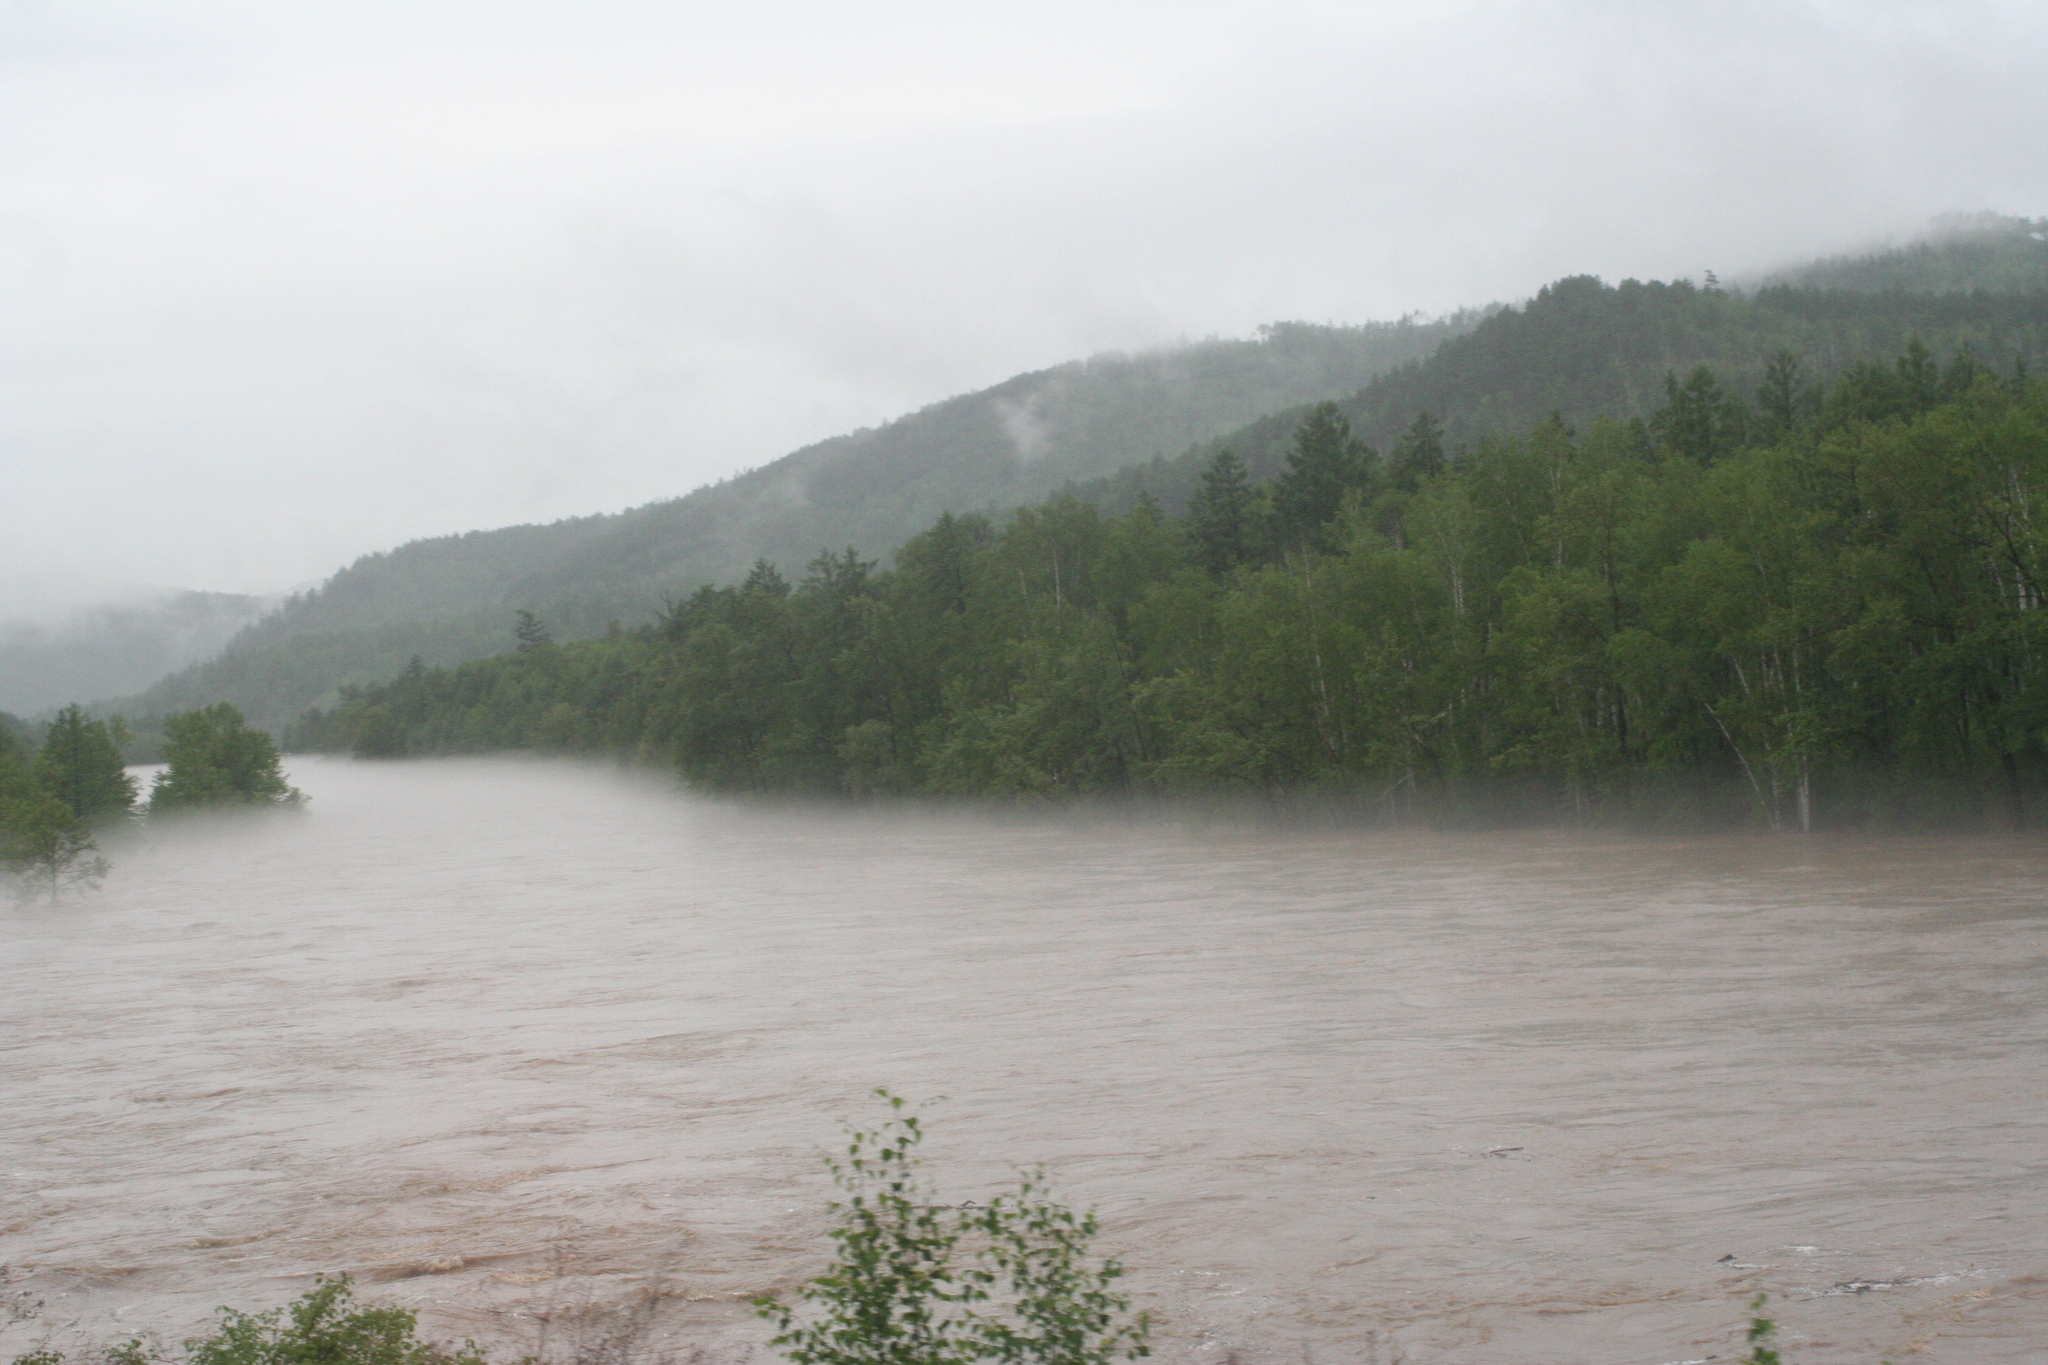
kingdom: Plantae
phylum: Tracheophyta
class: Pinopsida
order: Pinales
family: Pinaceae
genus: Larix
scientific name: Larix gmelinii
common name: Dahurian larch
